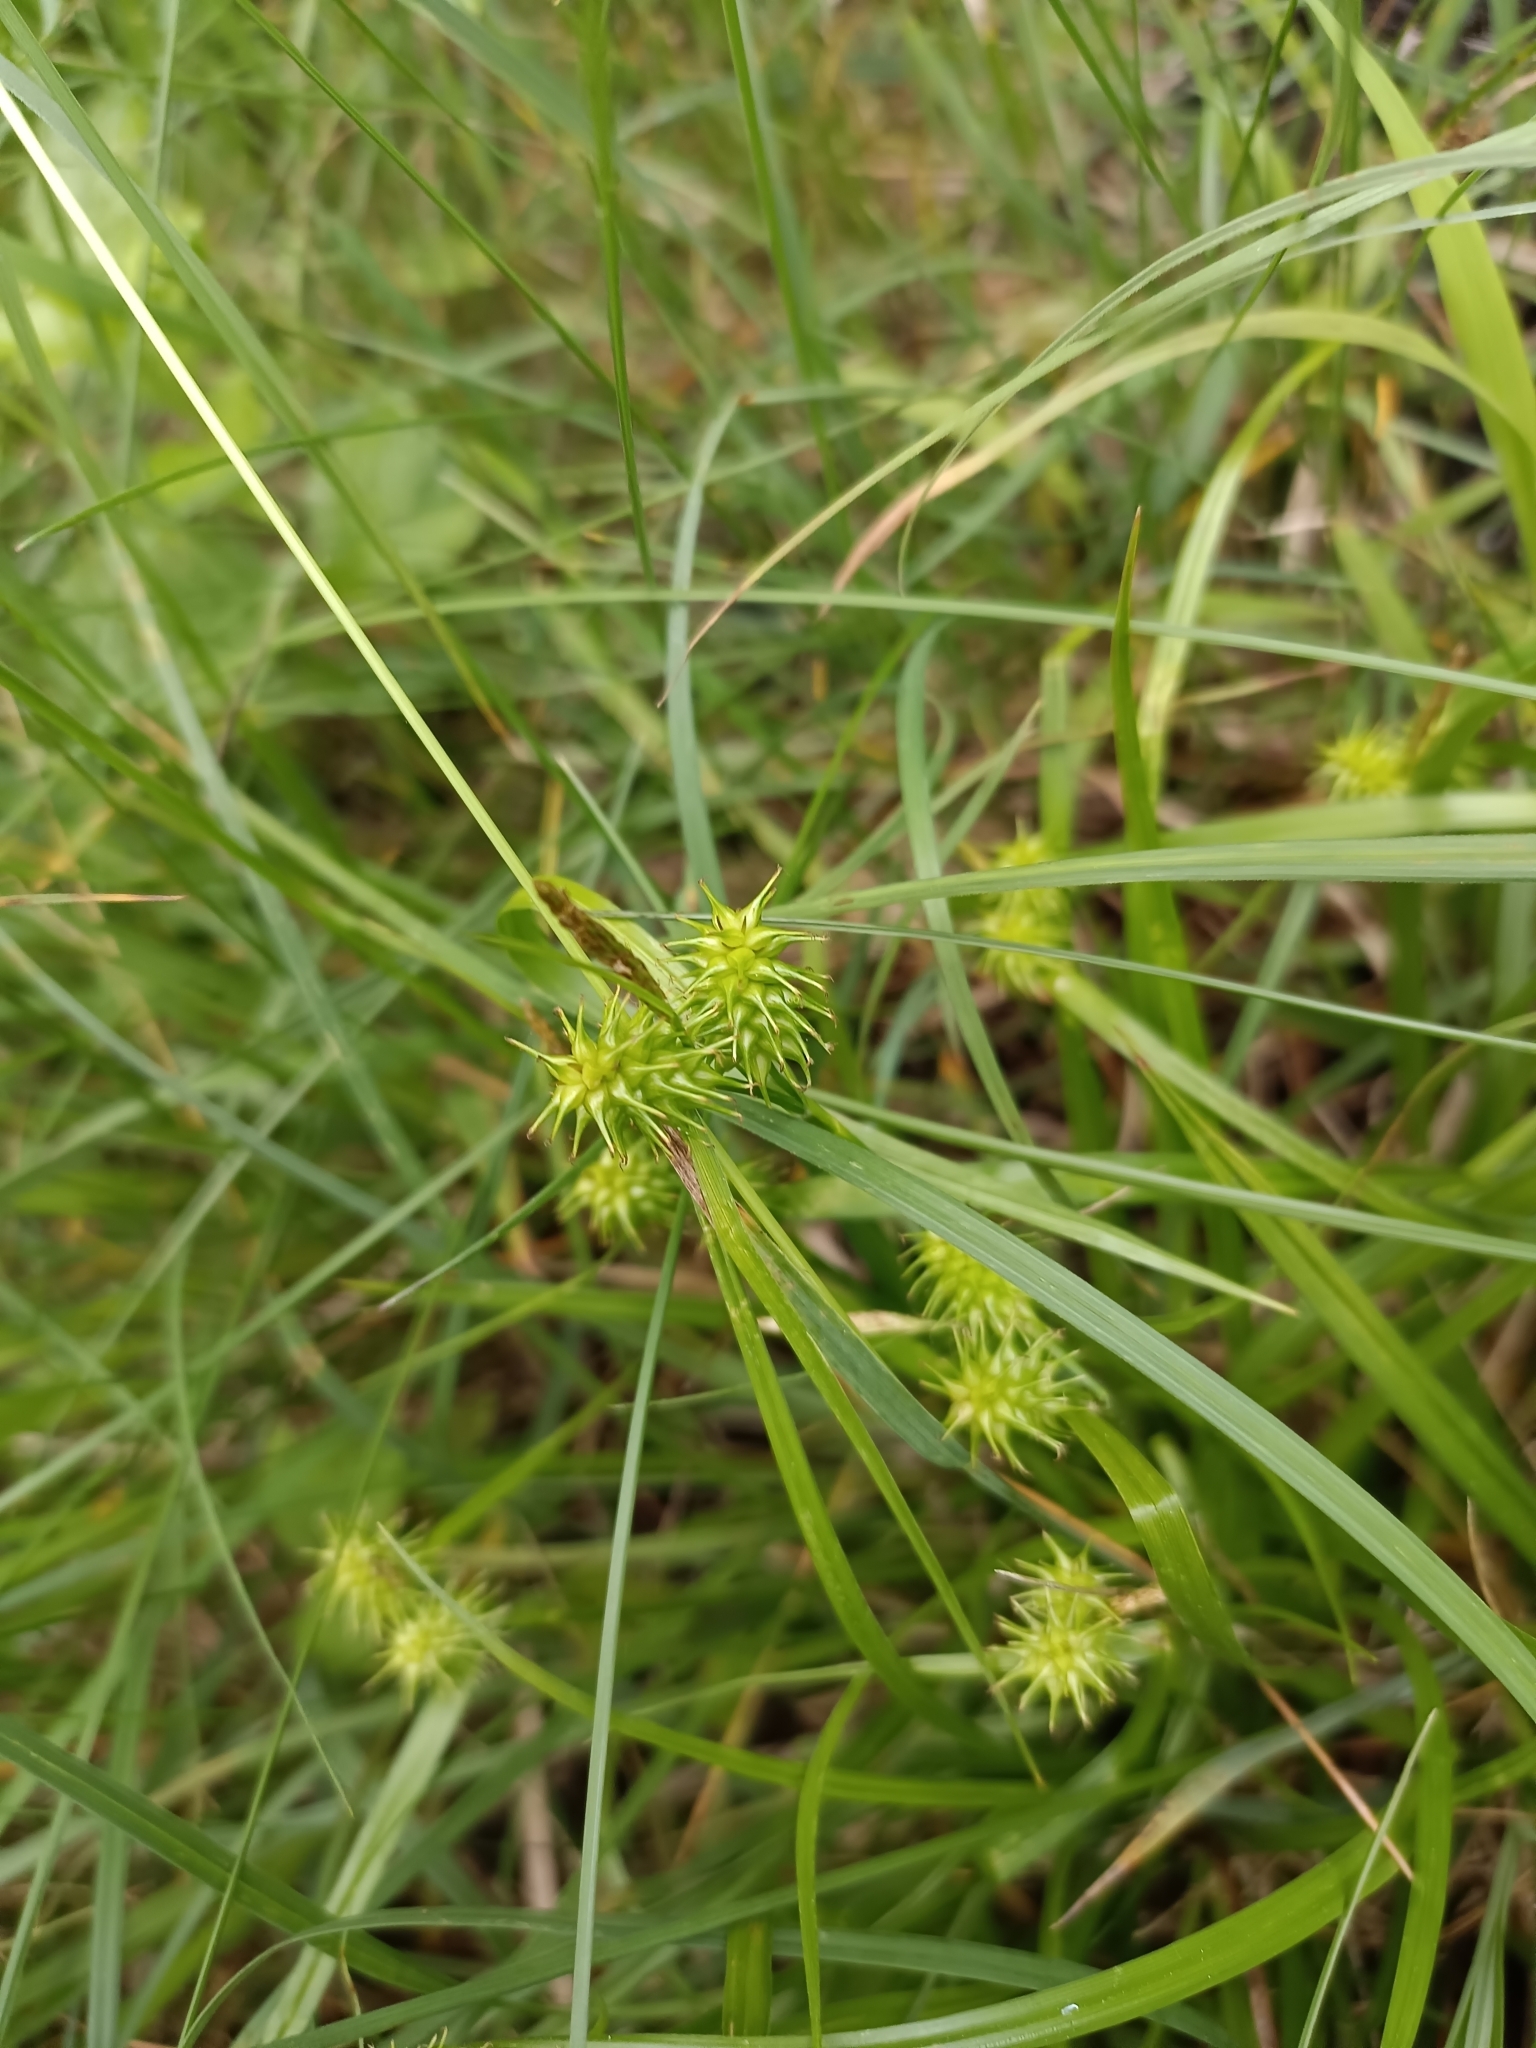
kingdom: Plantae
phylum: Tracheophyta
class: Liliopsida
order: Poales
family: Cyperaceae
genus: Carex
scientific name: Carex flava
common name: Large yellow-sedge
